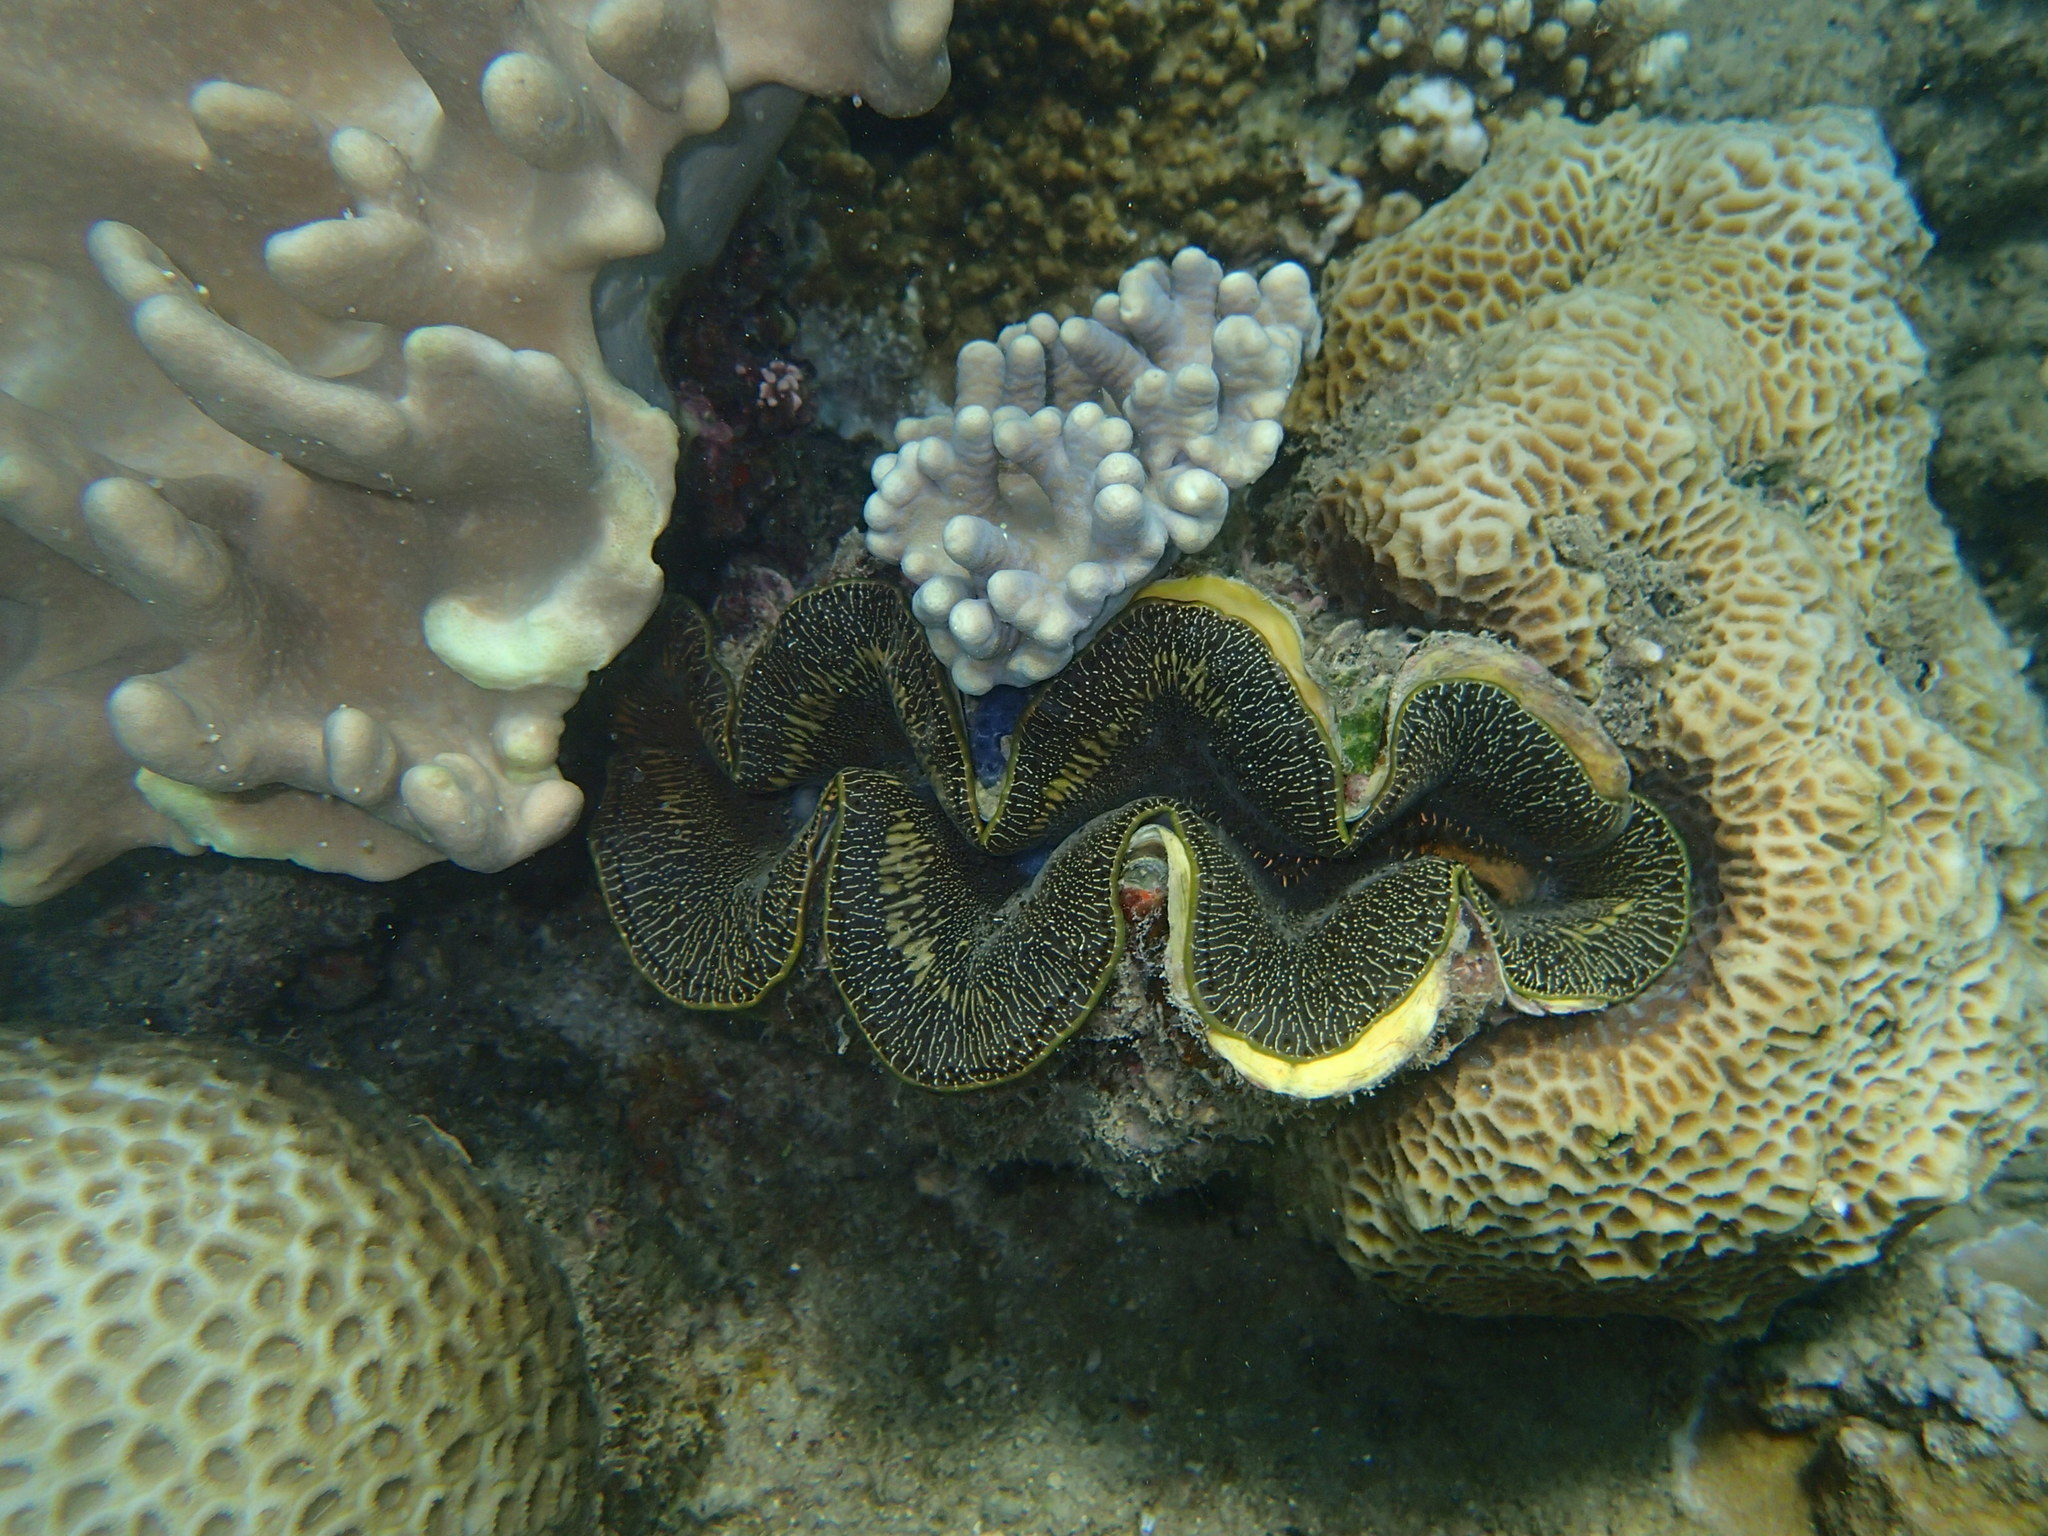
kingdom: Animalia
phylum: Mollusca
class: Bivalvia
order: Cardiida
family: Cardiidae
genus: Tridacna
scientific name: Tridacna maxima
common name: Small giant clam
